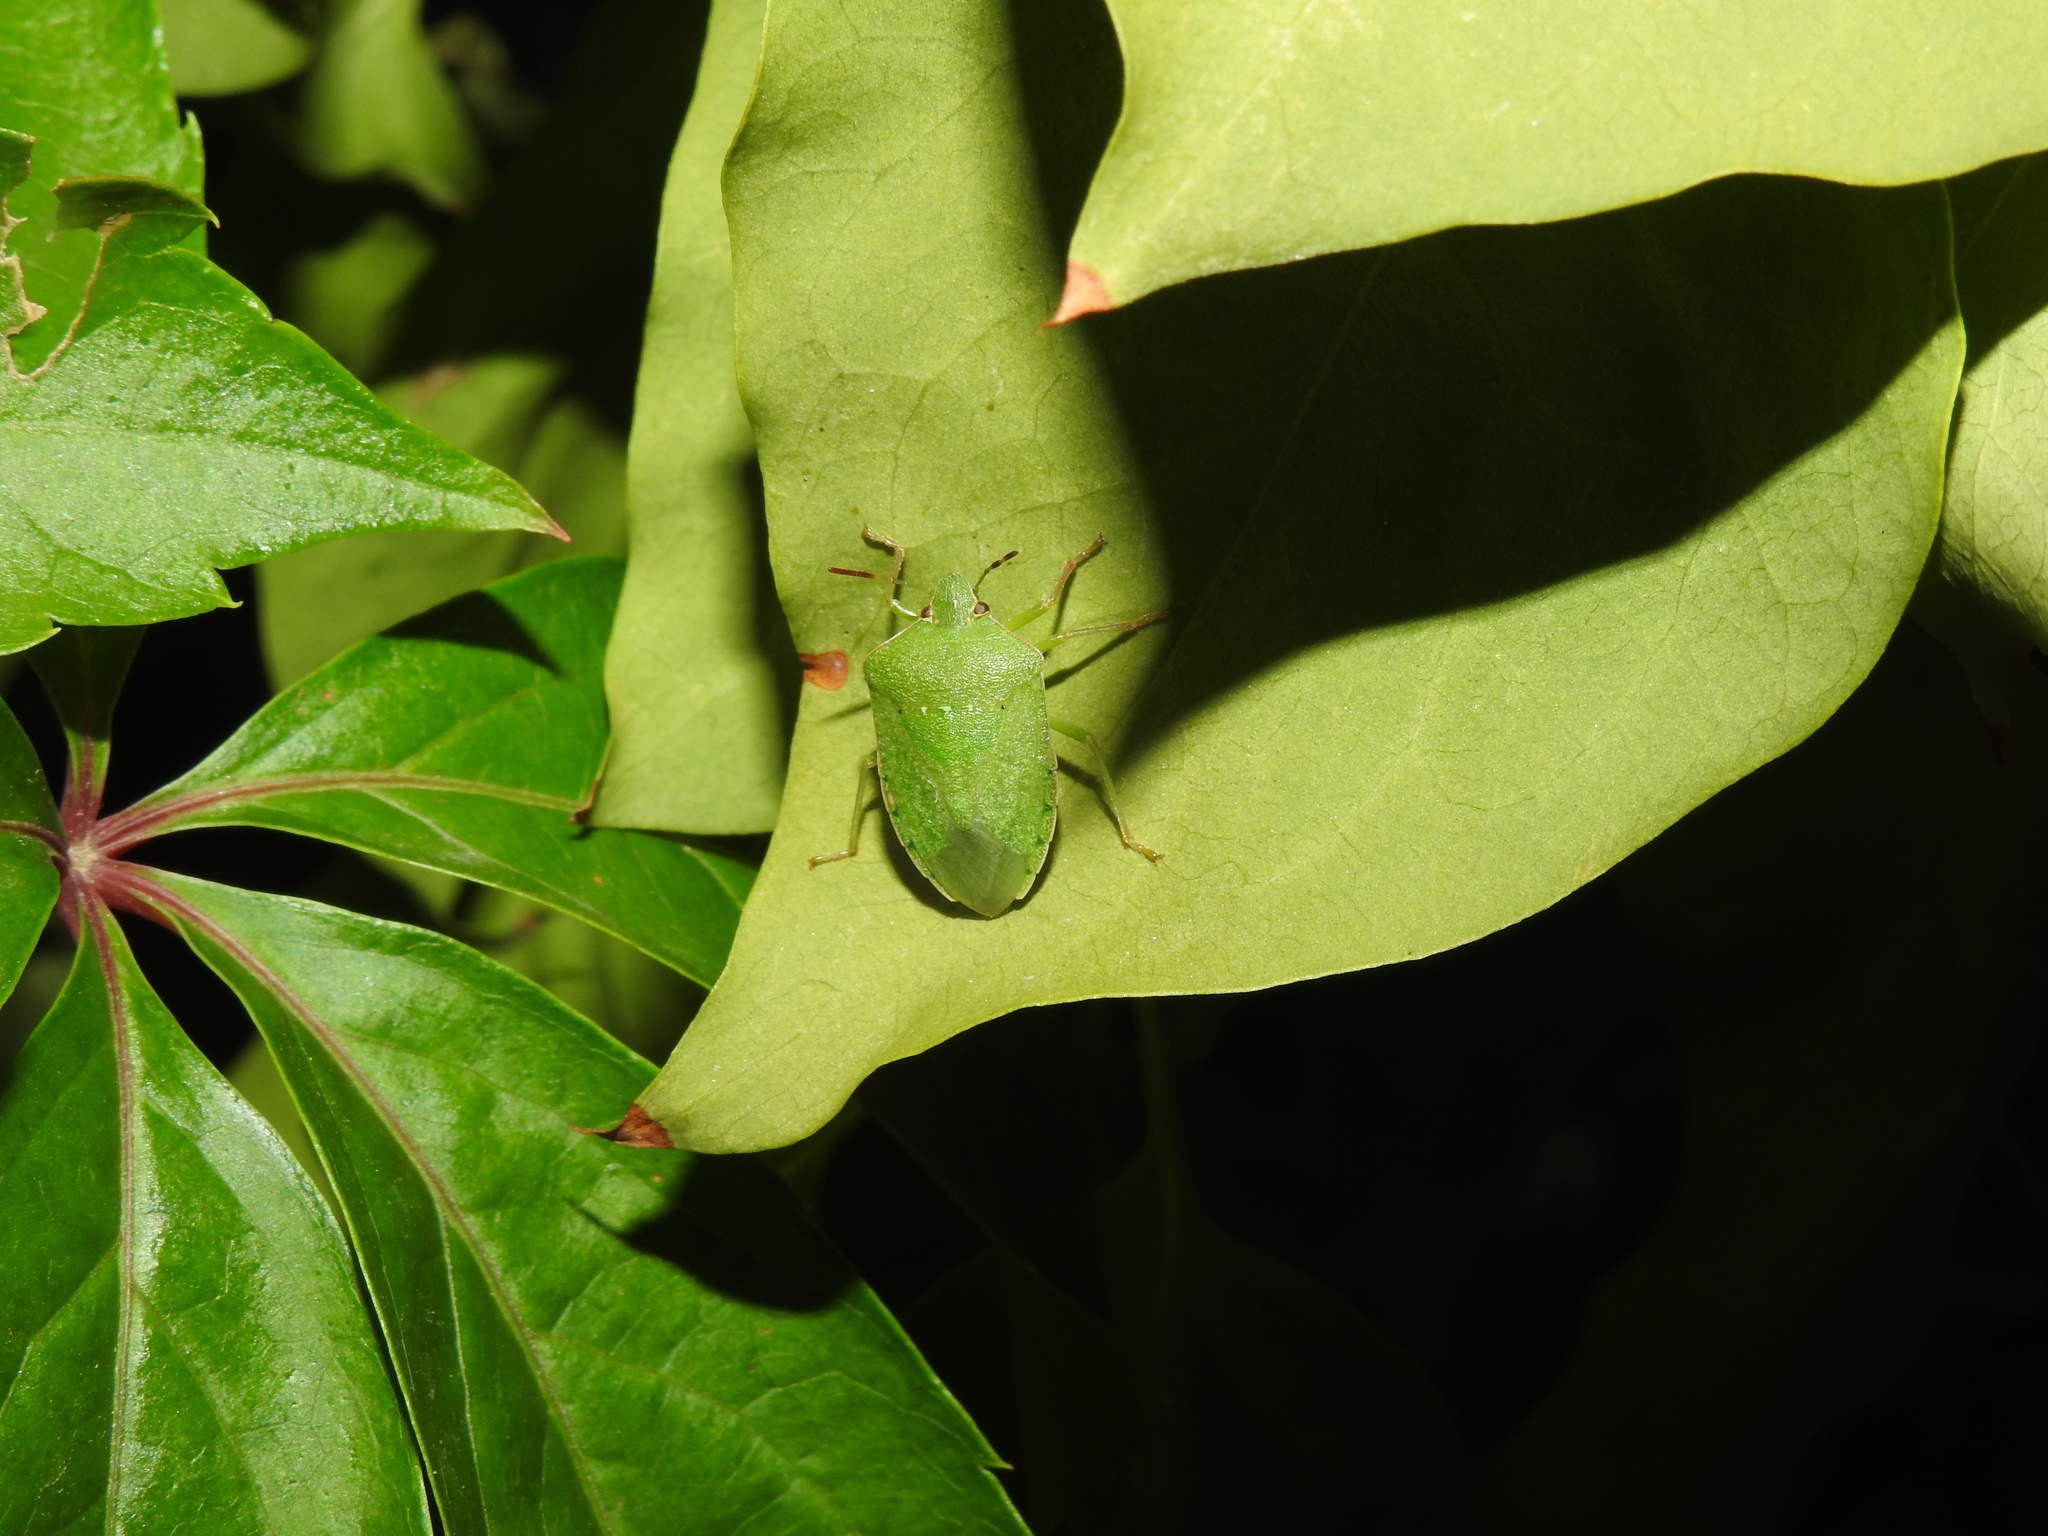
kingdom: Animalia
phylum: Arthropoda
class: Insecta
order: Hemiptera
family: Pentatomidae
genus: Nezara
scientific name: Nezara viridula
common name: Southern green stink bug
